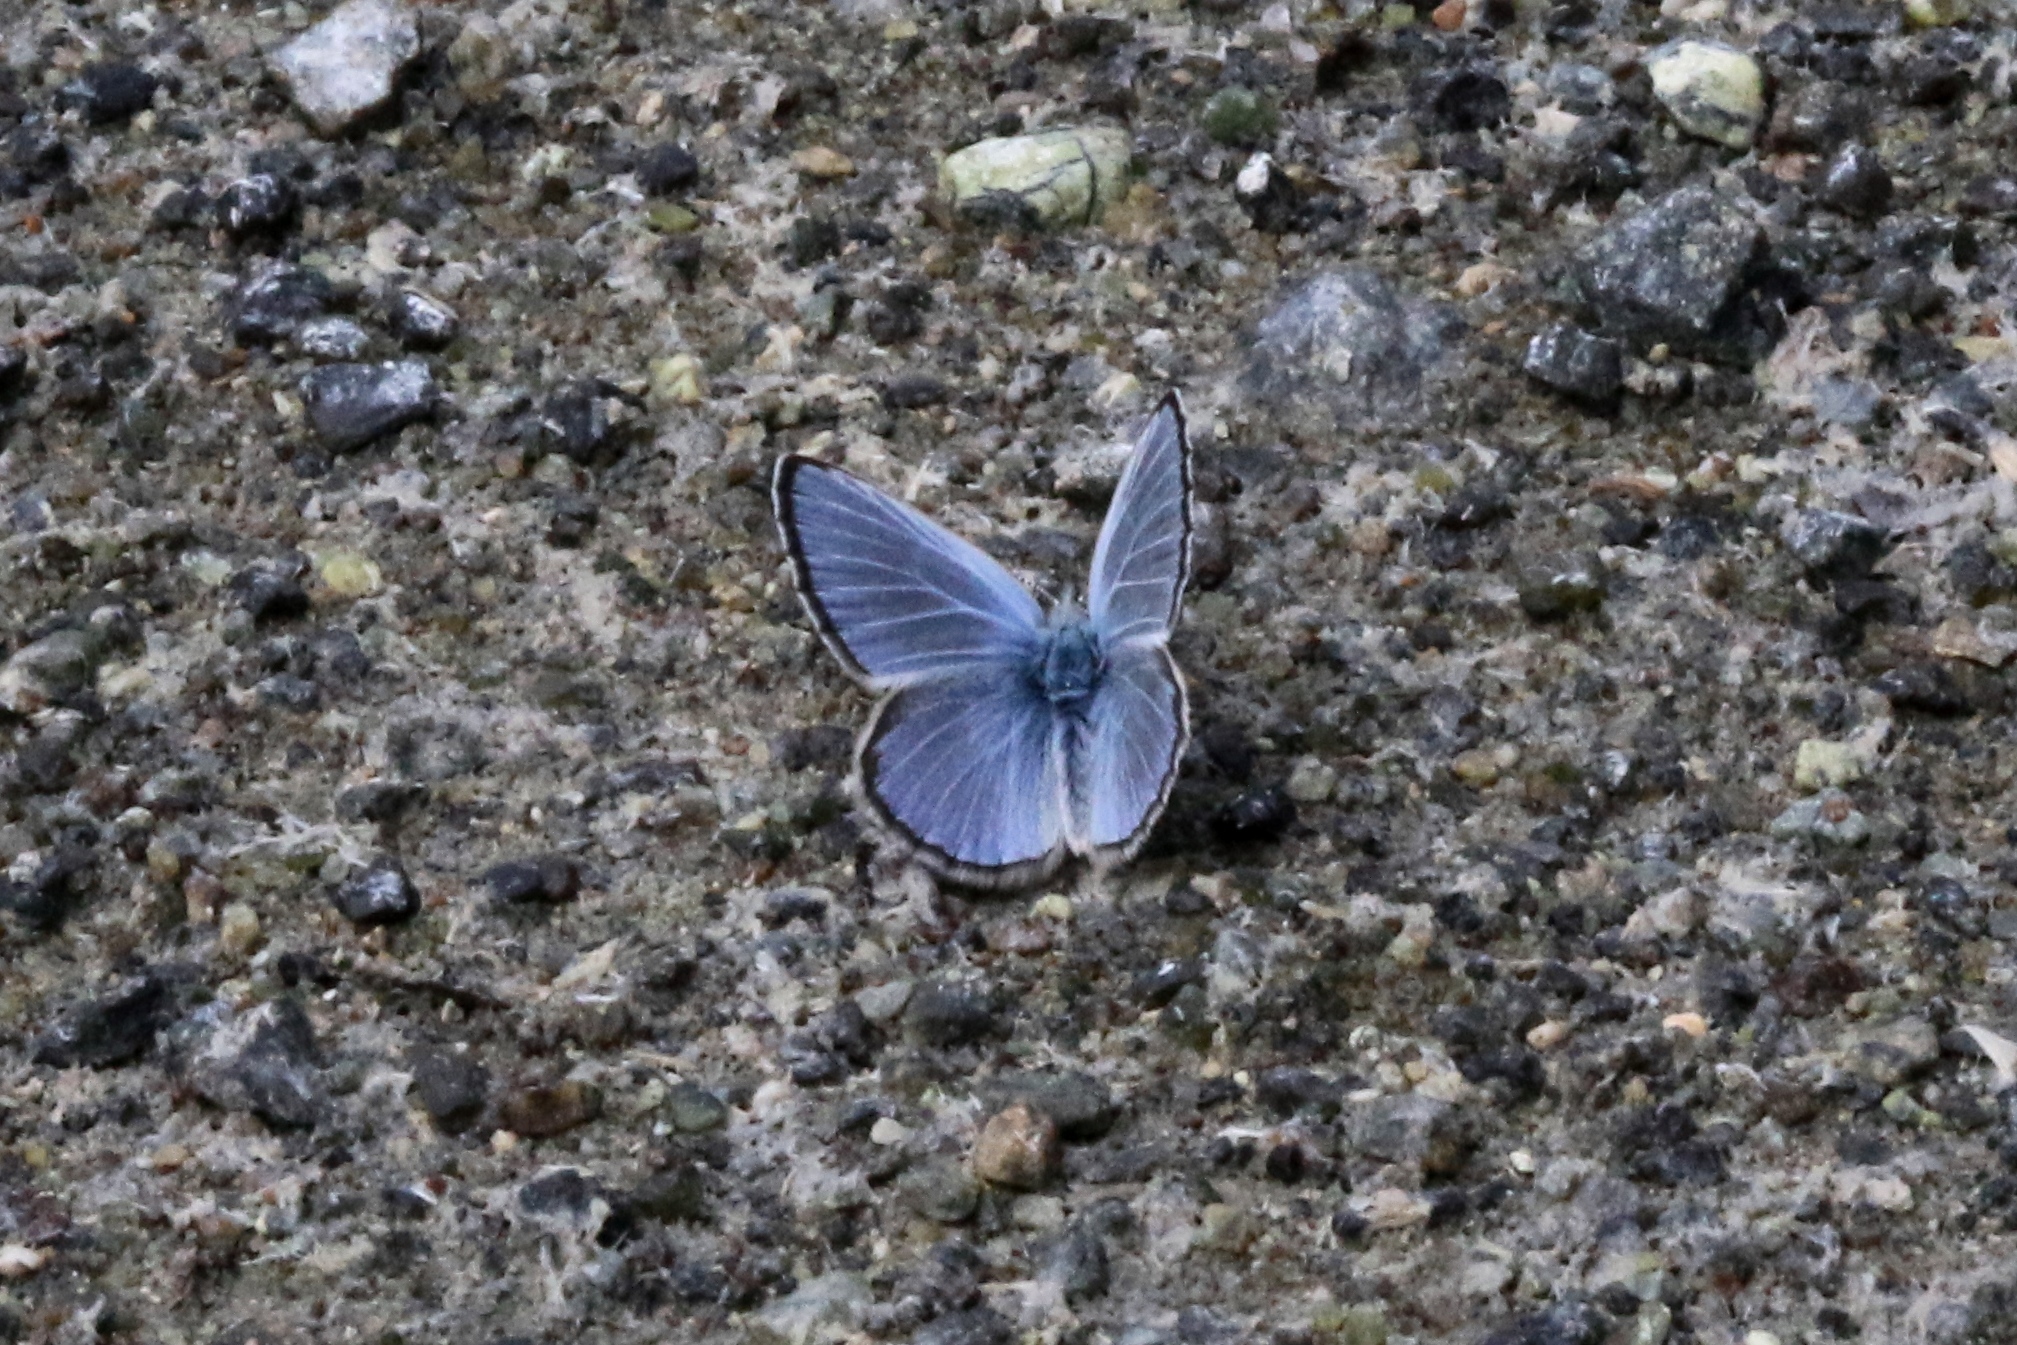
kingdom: Animalia
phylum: Arthropoda
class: Insecta
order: Lepidoptera
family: Lycaenidae
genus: Glaucopsyche
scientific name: Glaucopsyche lygdamus
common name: Silvery blue
